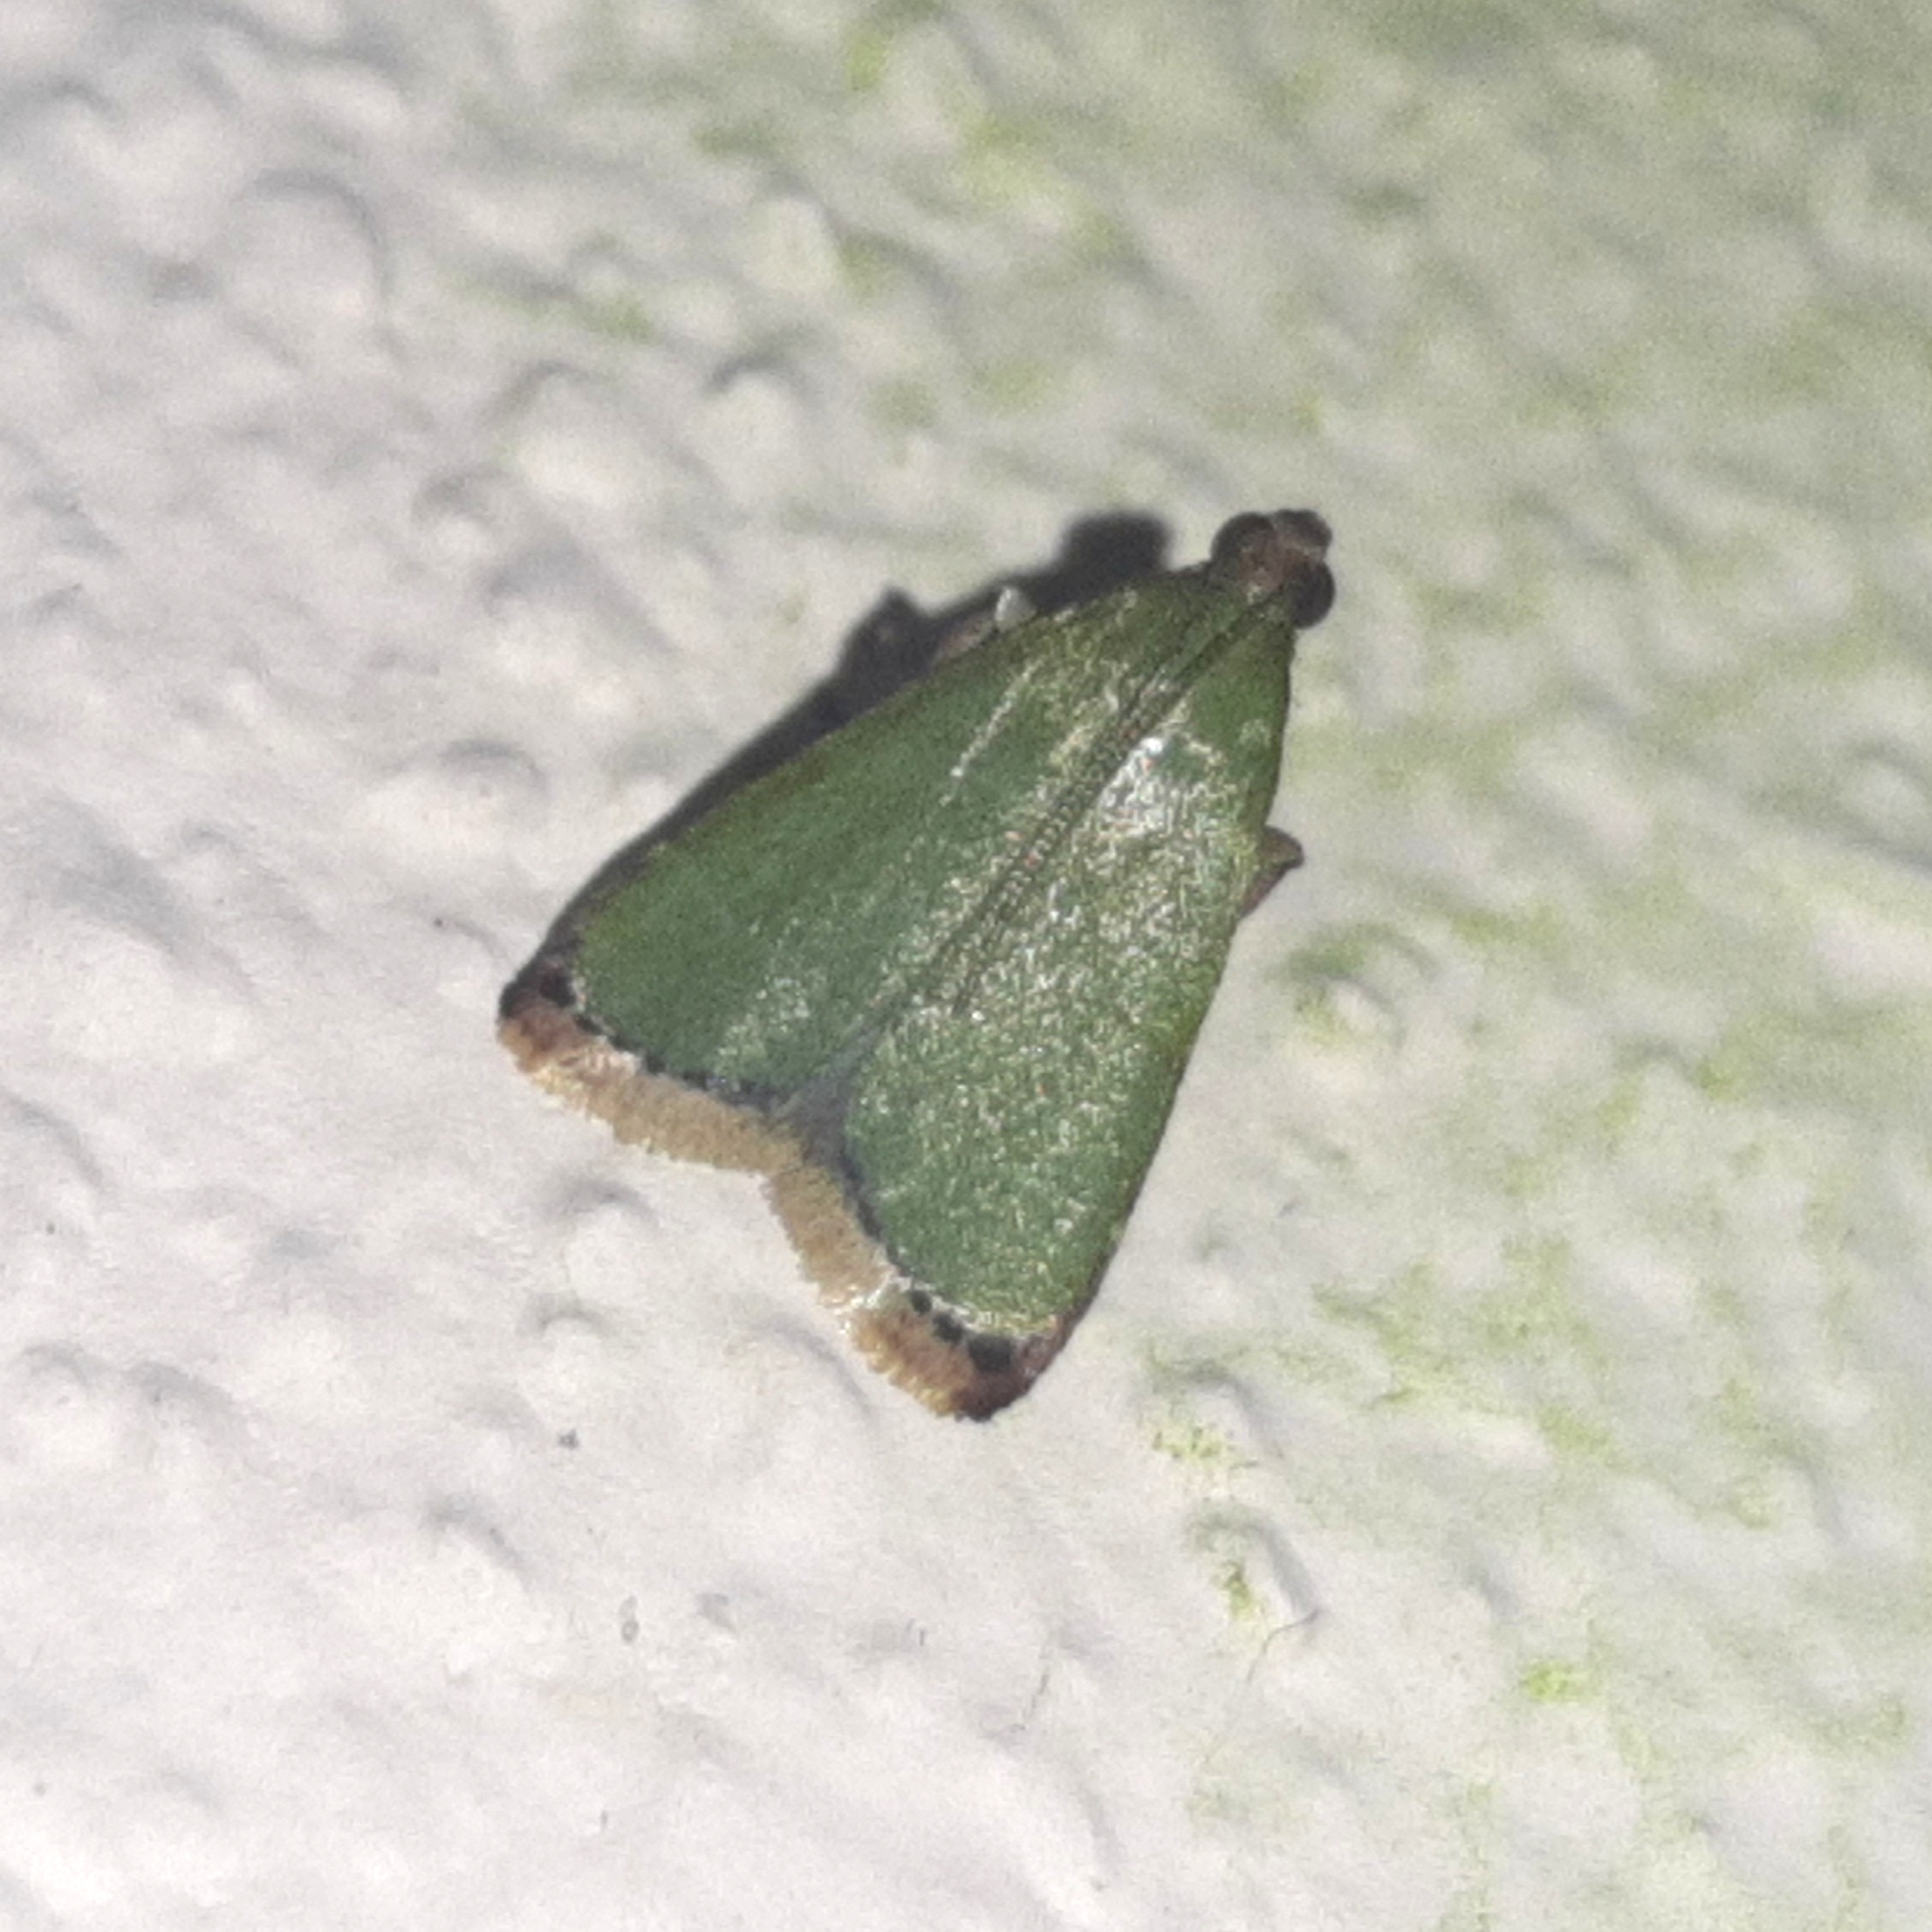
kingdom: Animalia
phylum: Arthropoda
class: Insecta
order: Lepidoptera
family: Pyralidae
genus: Xantippe
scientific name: Xantippe olivalis
